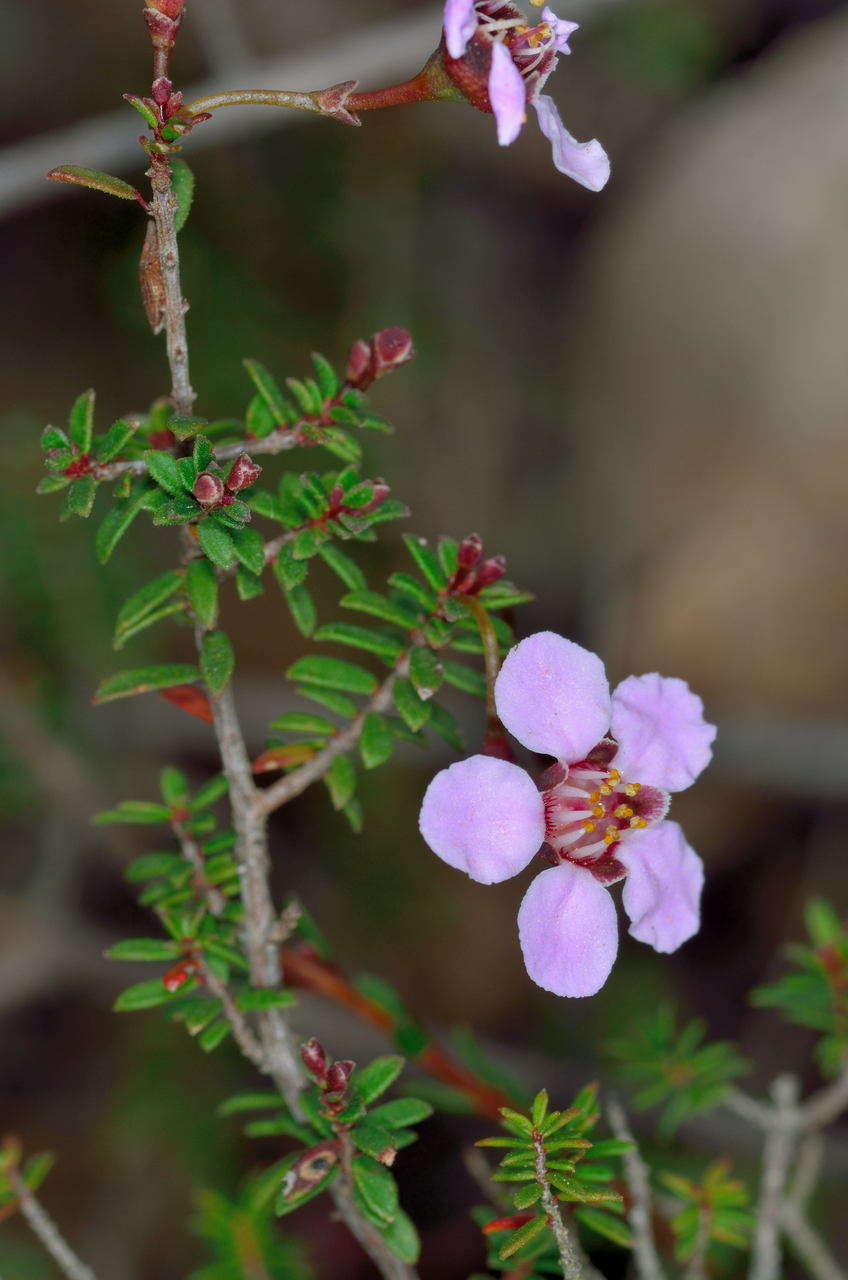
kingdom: Plantae
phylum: Tracheophyta
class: Magnoliopsida
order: Myrtales
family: Myrtaceae
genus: Euryomyrtus
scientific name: Euryomyrtus ramosissima
